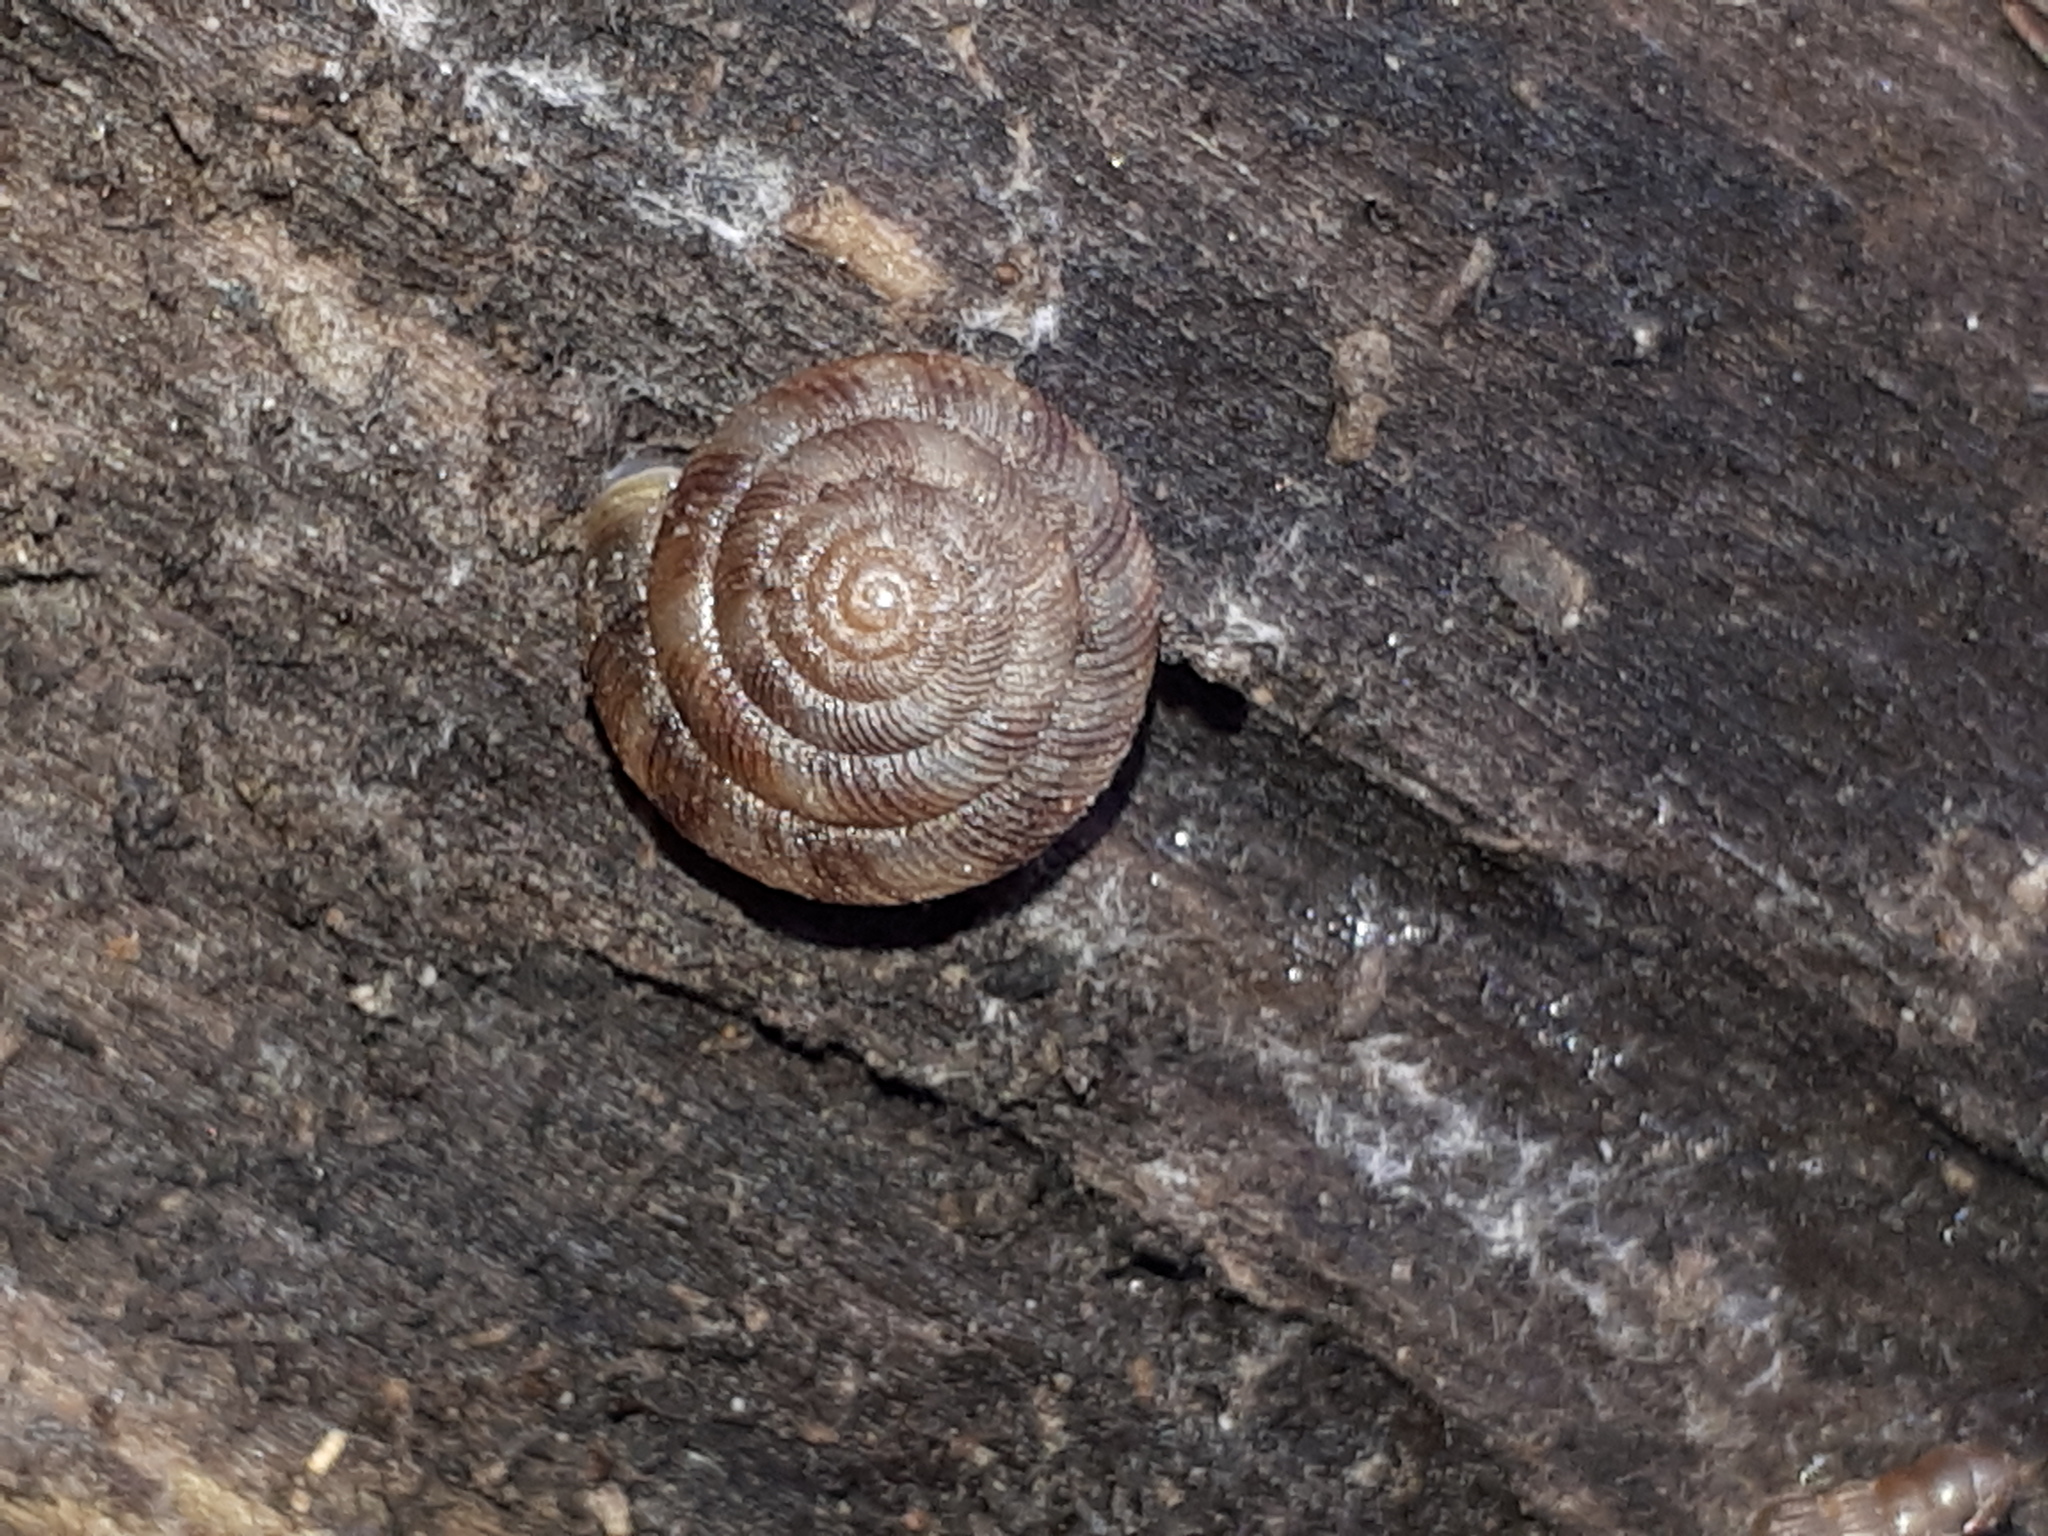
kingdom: Animalia
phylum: Mollusca
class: Gastropoda
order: Stylommatophora
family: Discidae
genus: Discus
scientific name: Discus rotundatus
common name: Rounded snail
